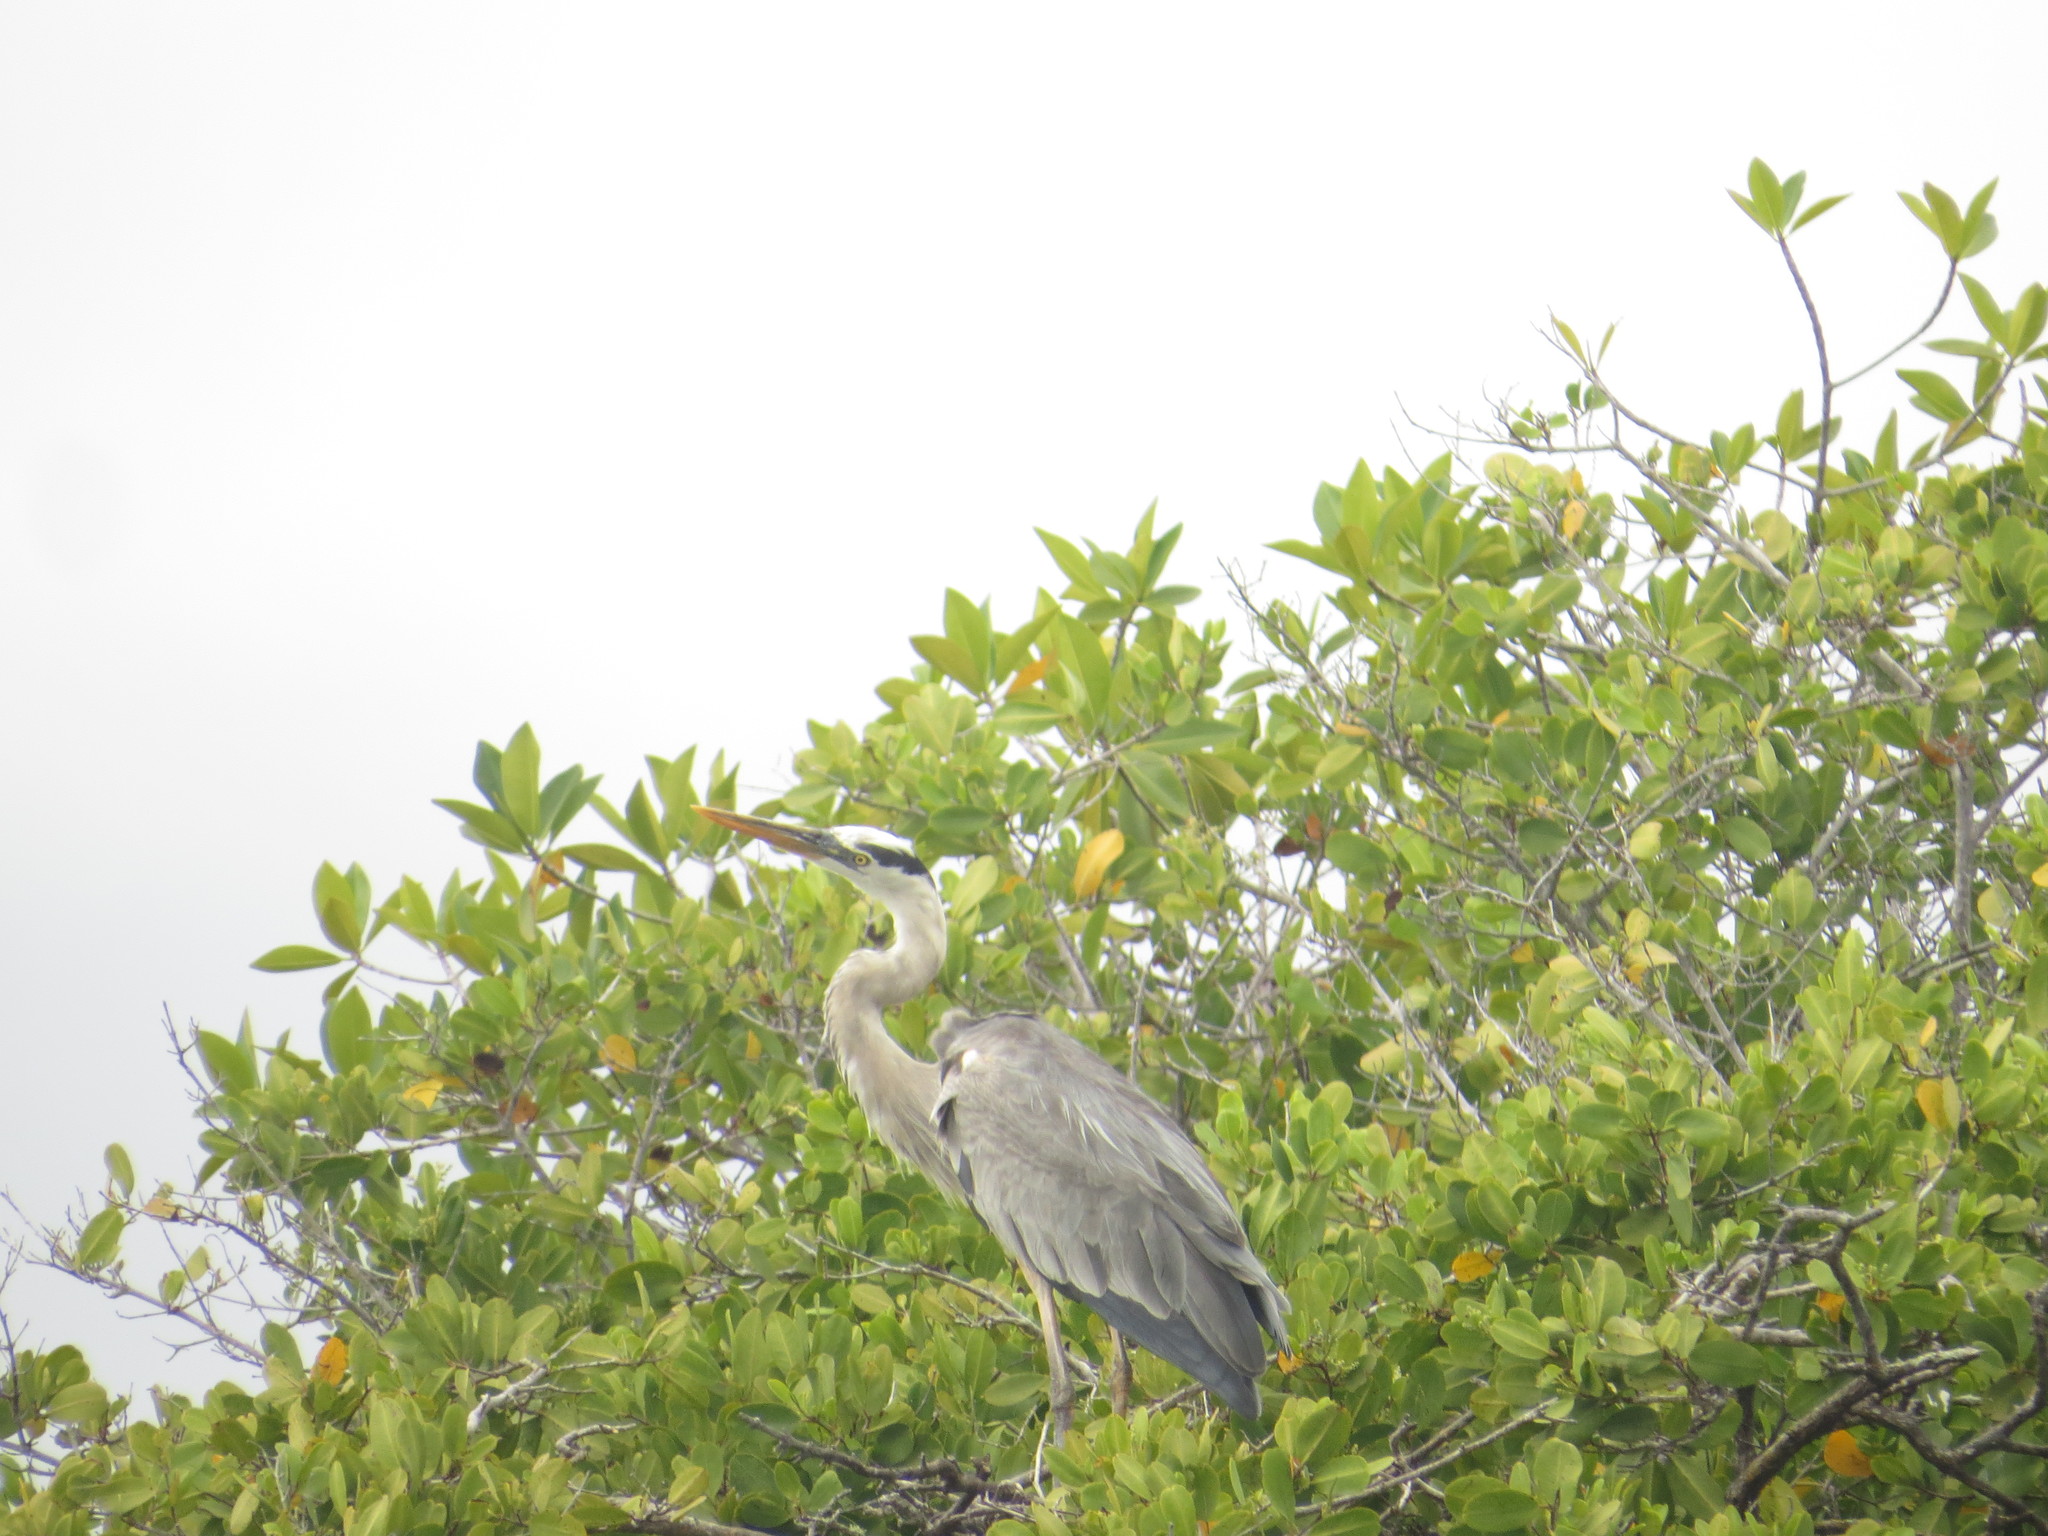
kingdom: Animalia
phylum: Chordata
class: Aves
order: Pelecaniformes
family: Ardeidae
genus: Ardea
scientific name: Ardea herodias
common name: Great blue heron
